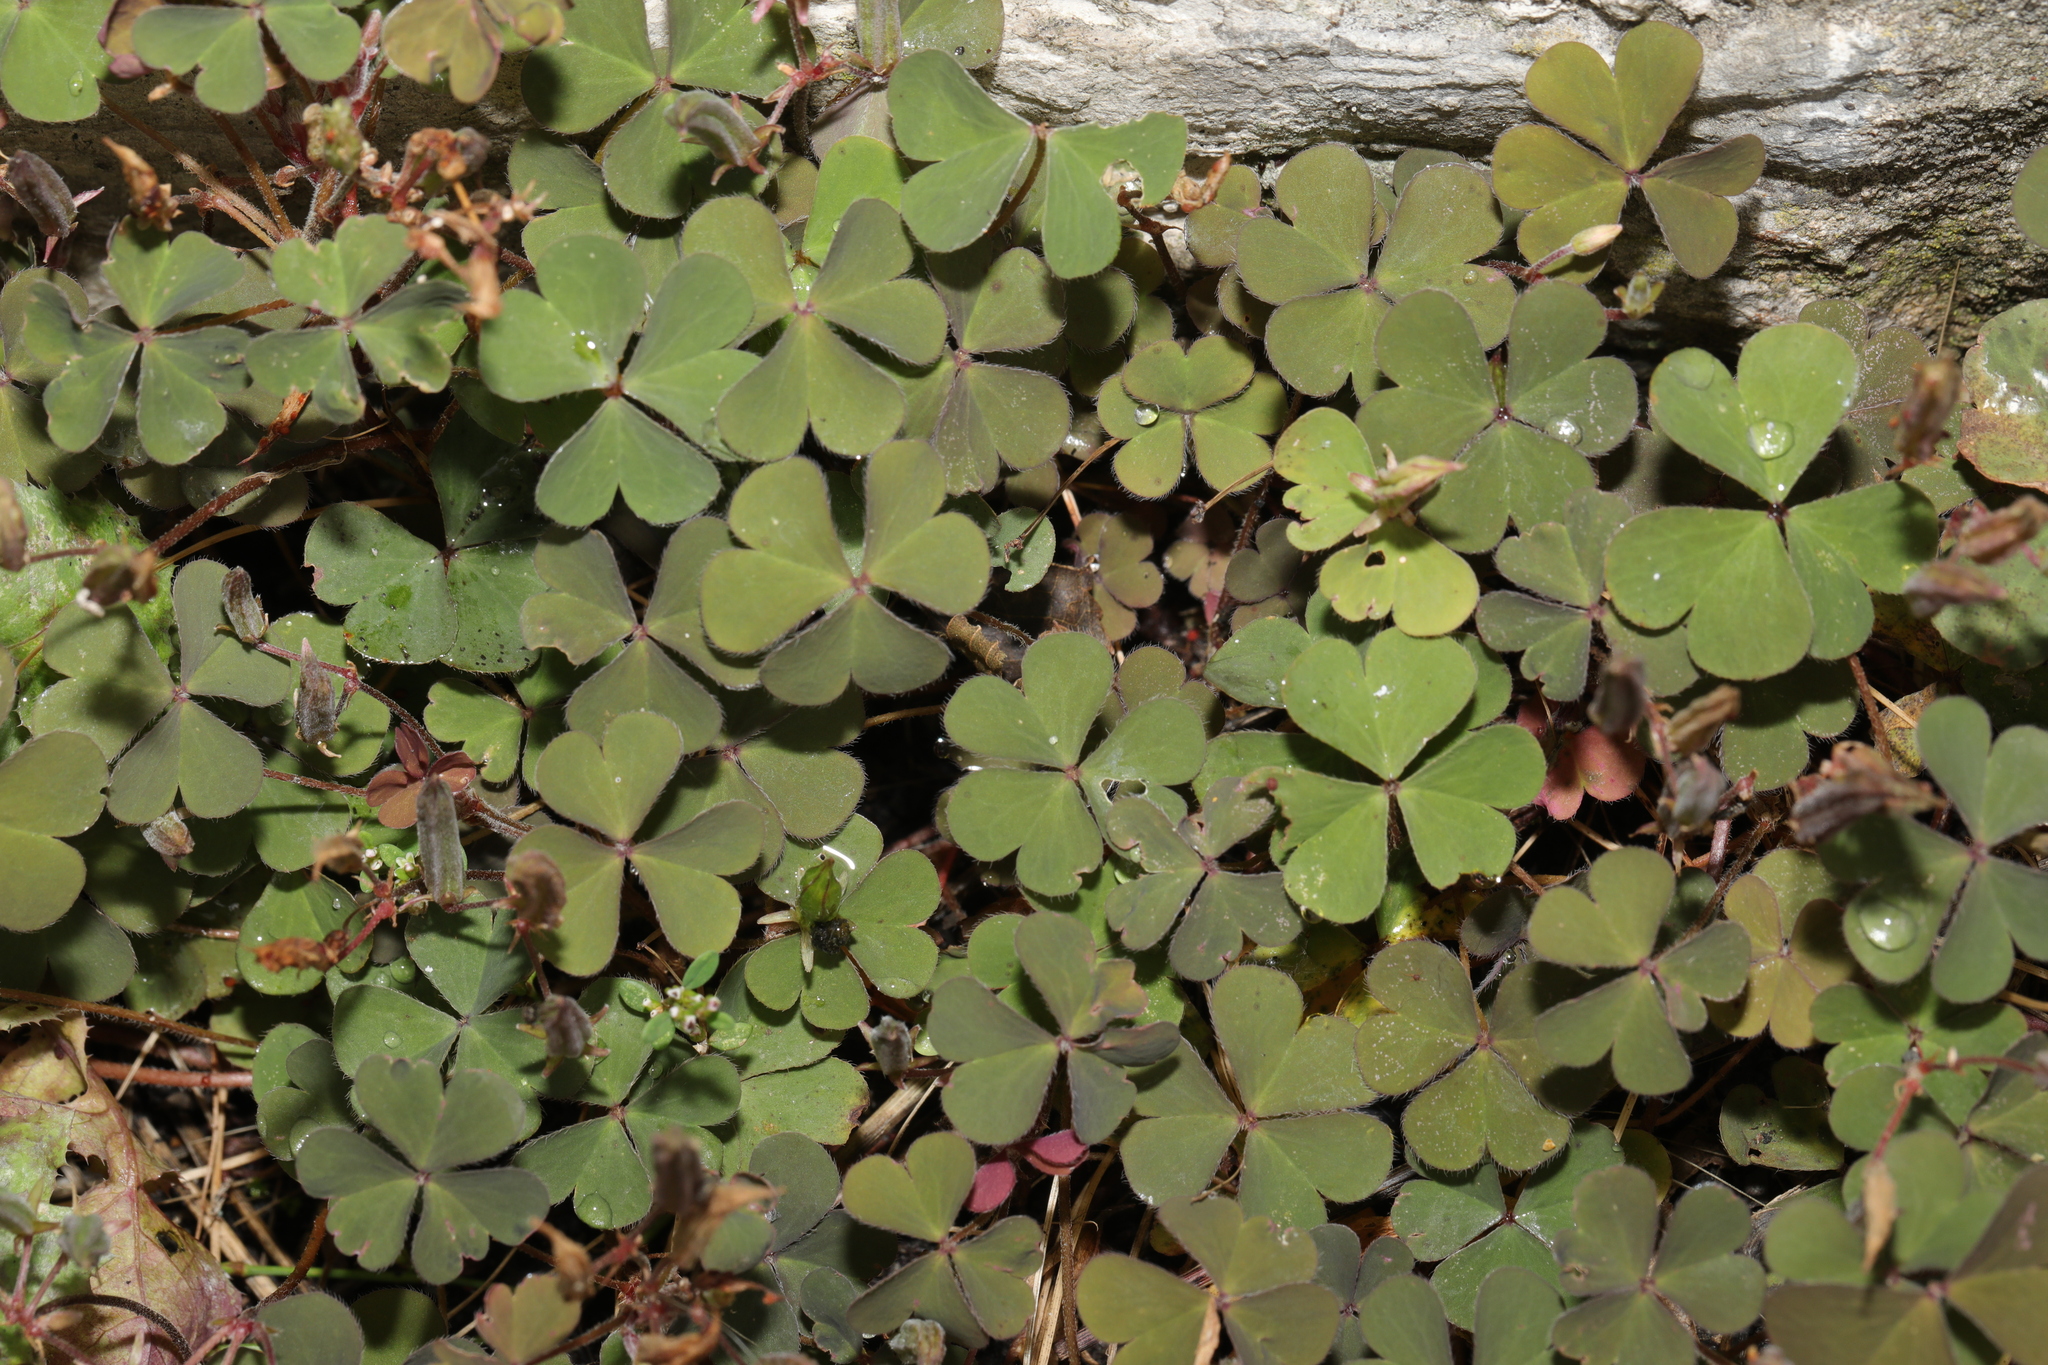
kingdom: Plantae
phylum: Tracheophyta
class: Magnoliopsida
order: Oxalidales
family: Oxalidaceae
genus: Oxalis
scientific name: Oxalis corniculata
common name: Procumbent yellow-sorrel
